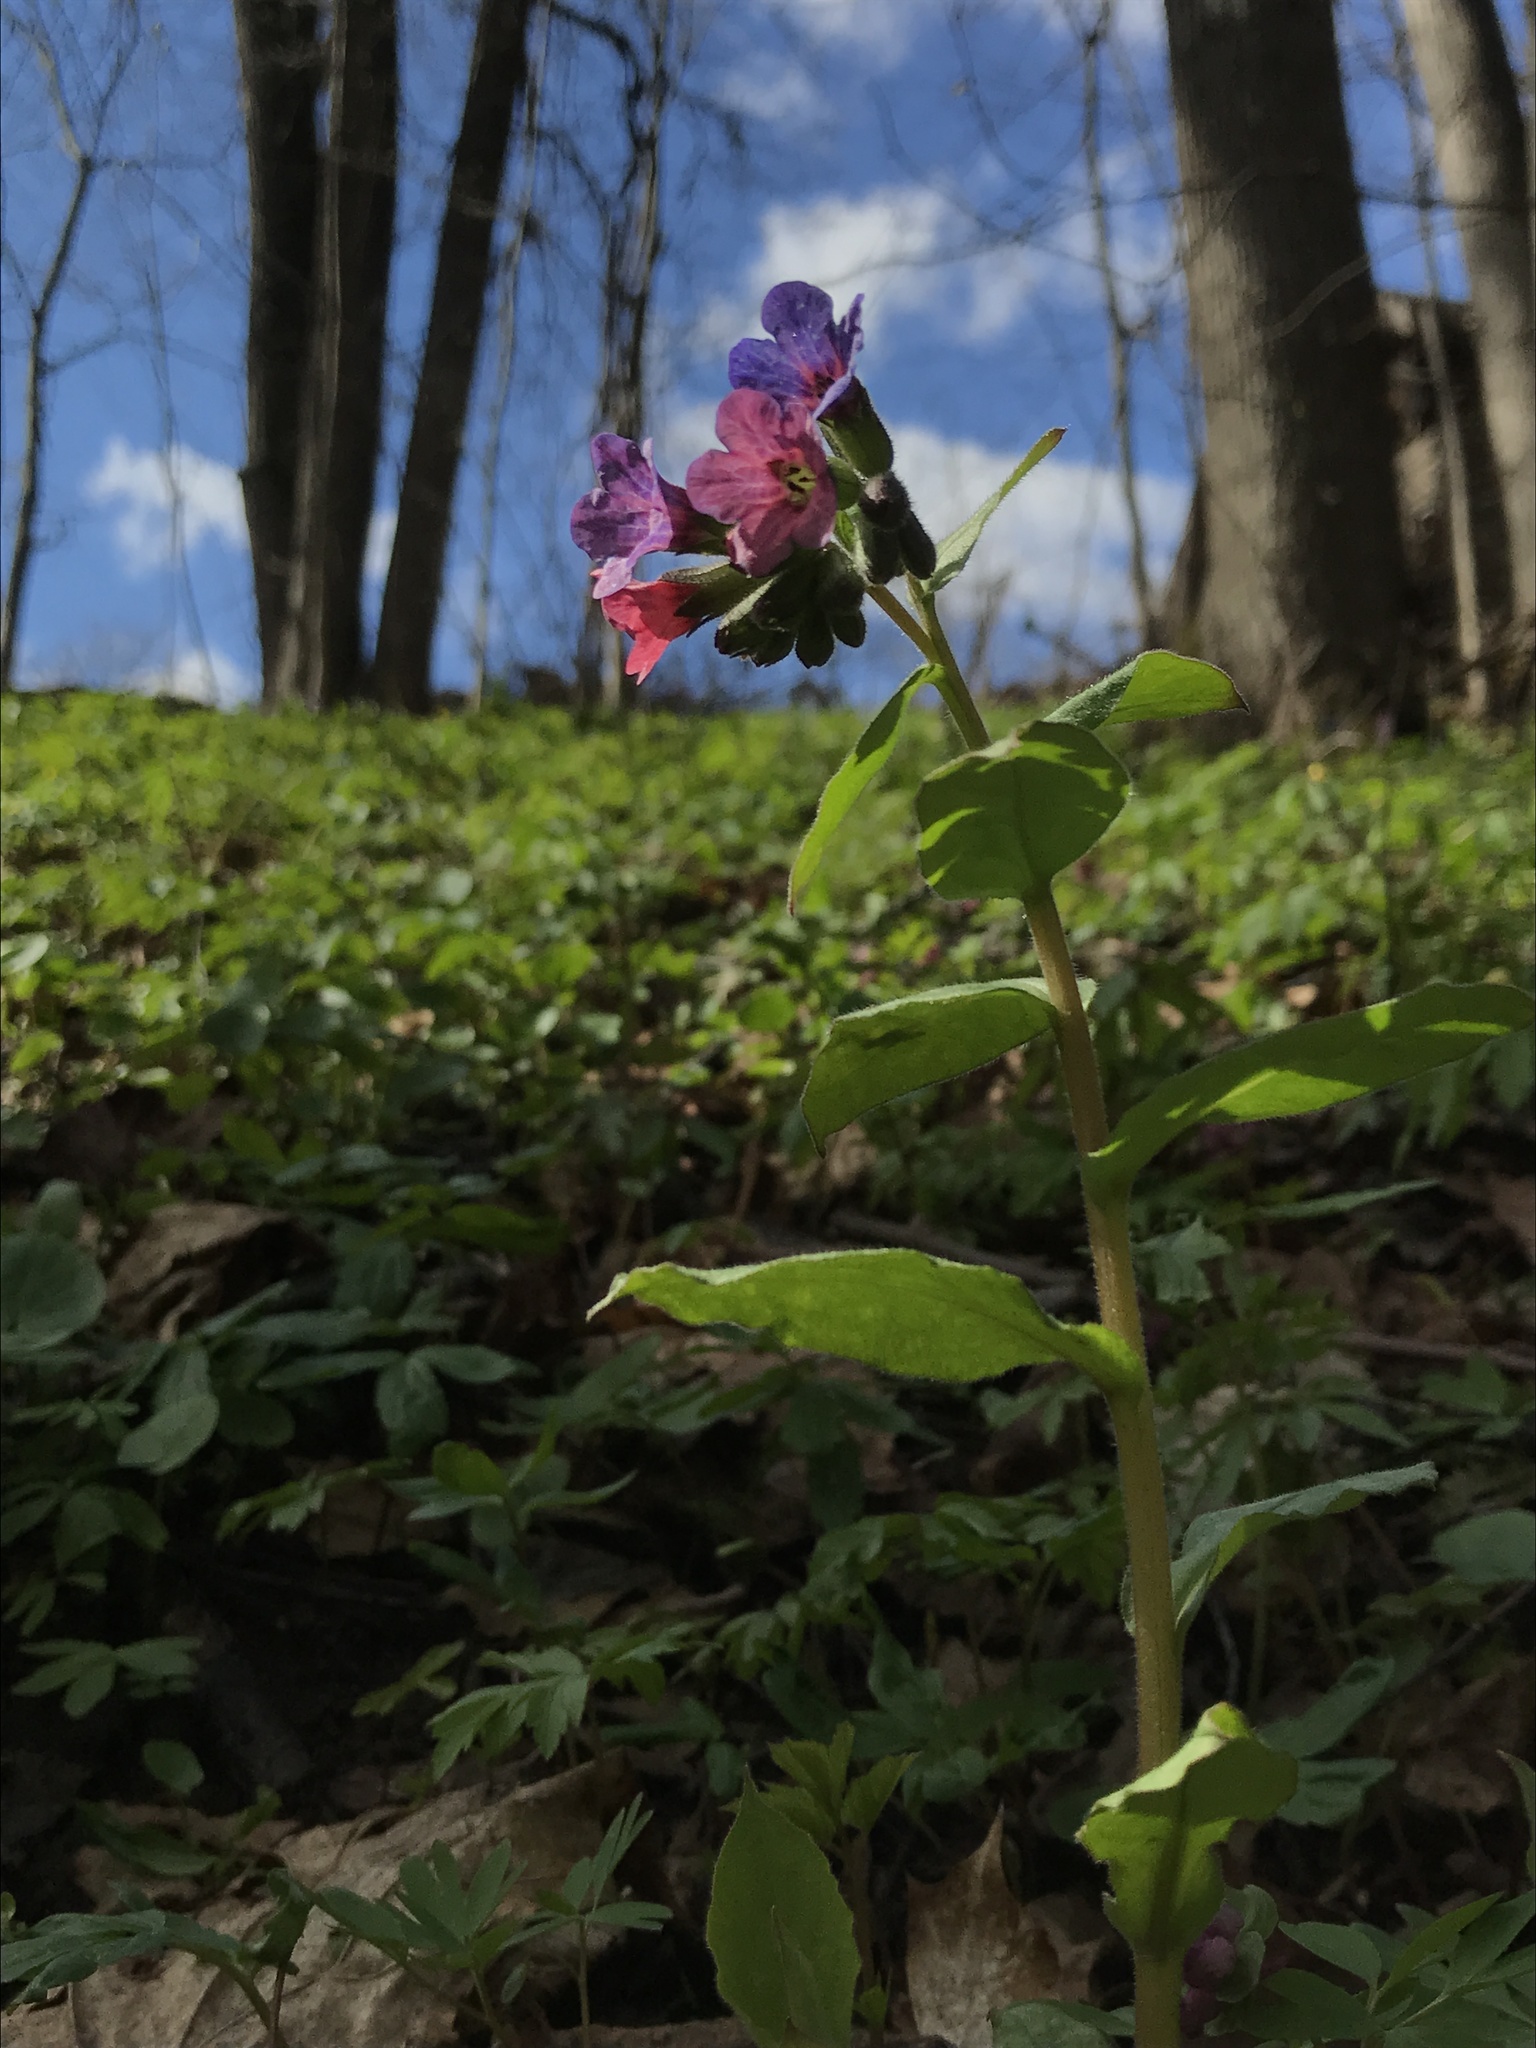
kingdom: Plantae
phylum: Tracheophyta
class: Magnoliopsida
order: Boraginales
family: Boraginaceae
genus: Pulmonaria
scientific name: Pulmonaria obscura
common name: Suffolk lungwort
